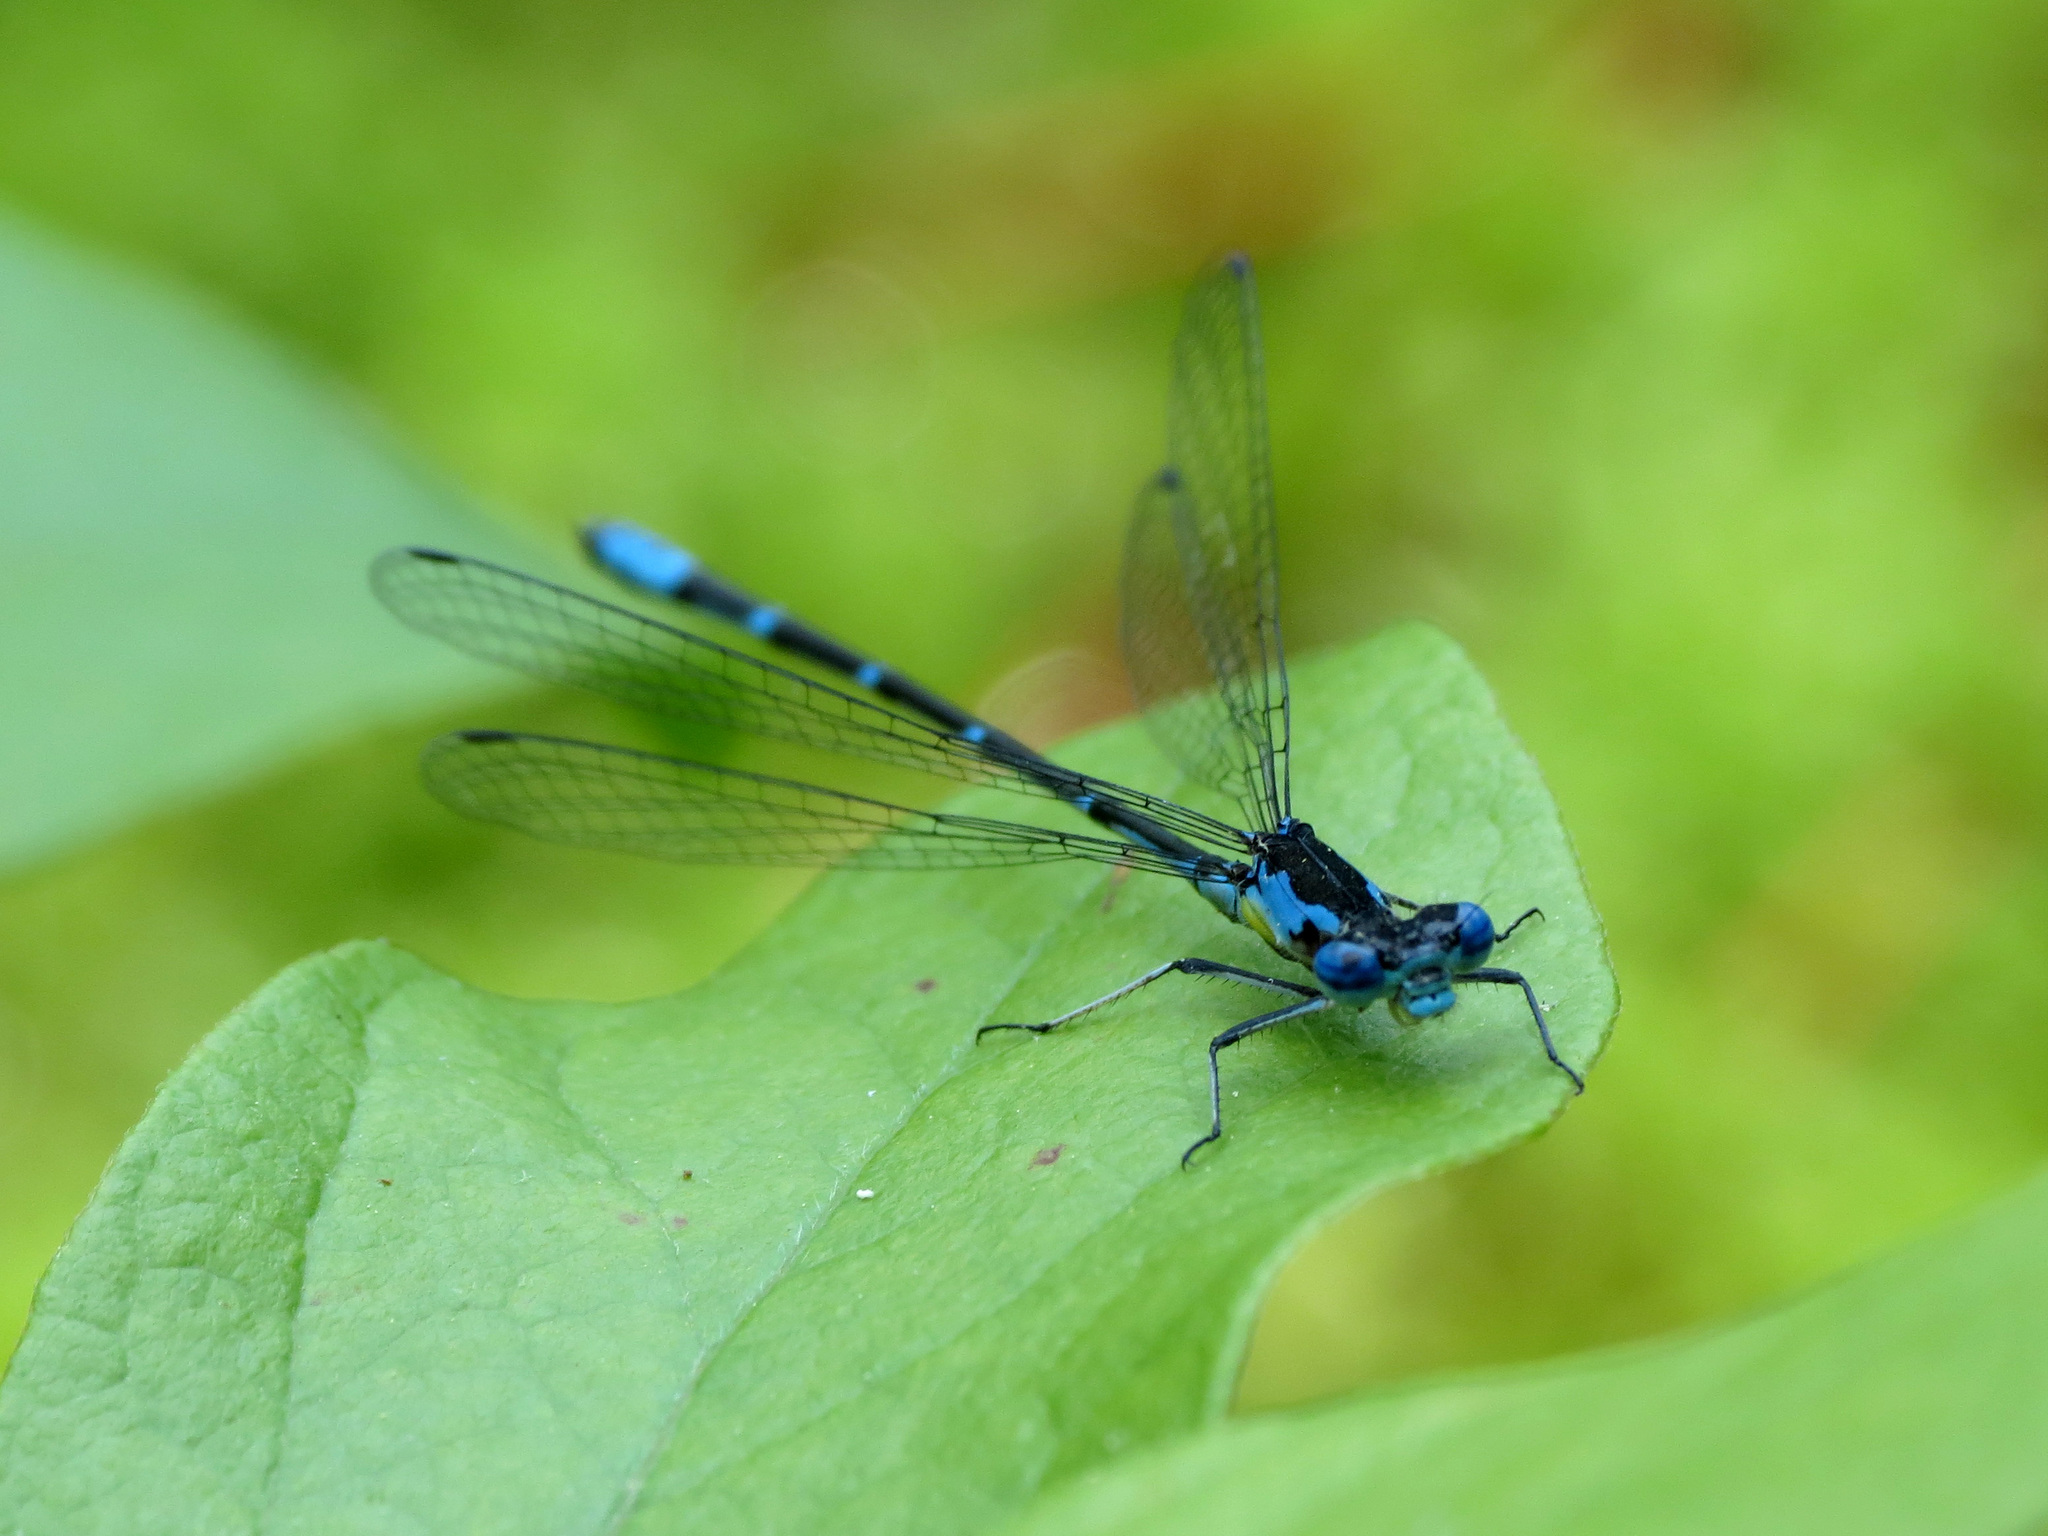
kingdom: Animalia
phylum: Arthropoda
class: Insecta
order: Odonata
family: Coenagrionidae
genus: Chromagrion
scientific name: Chromagrion conditum
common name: Aurora damsel
